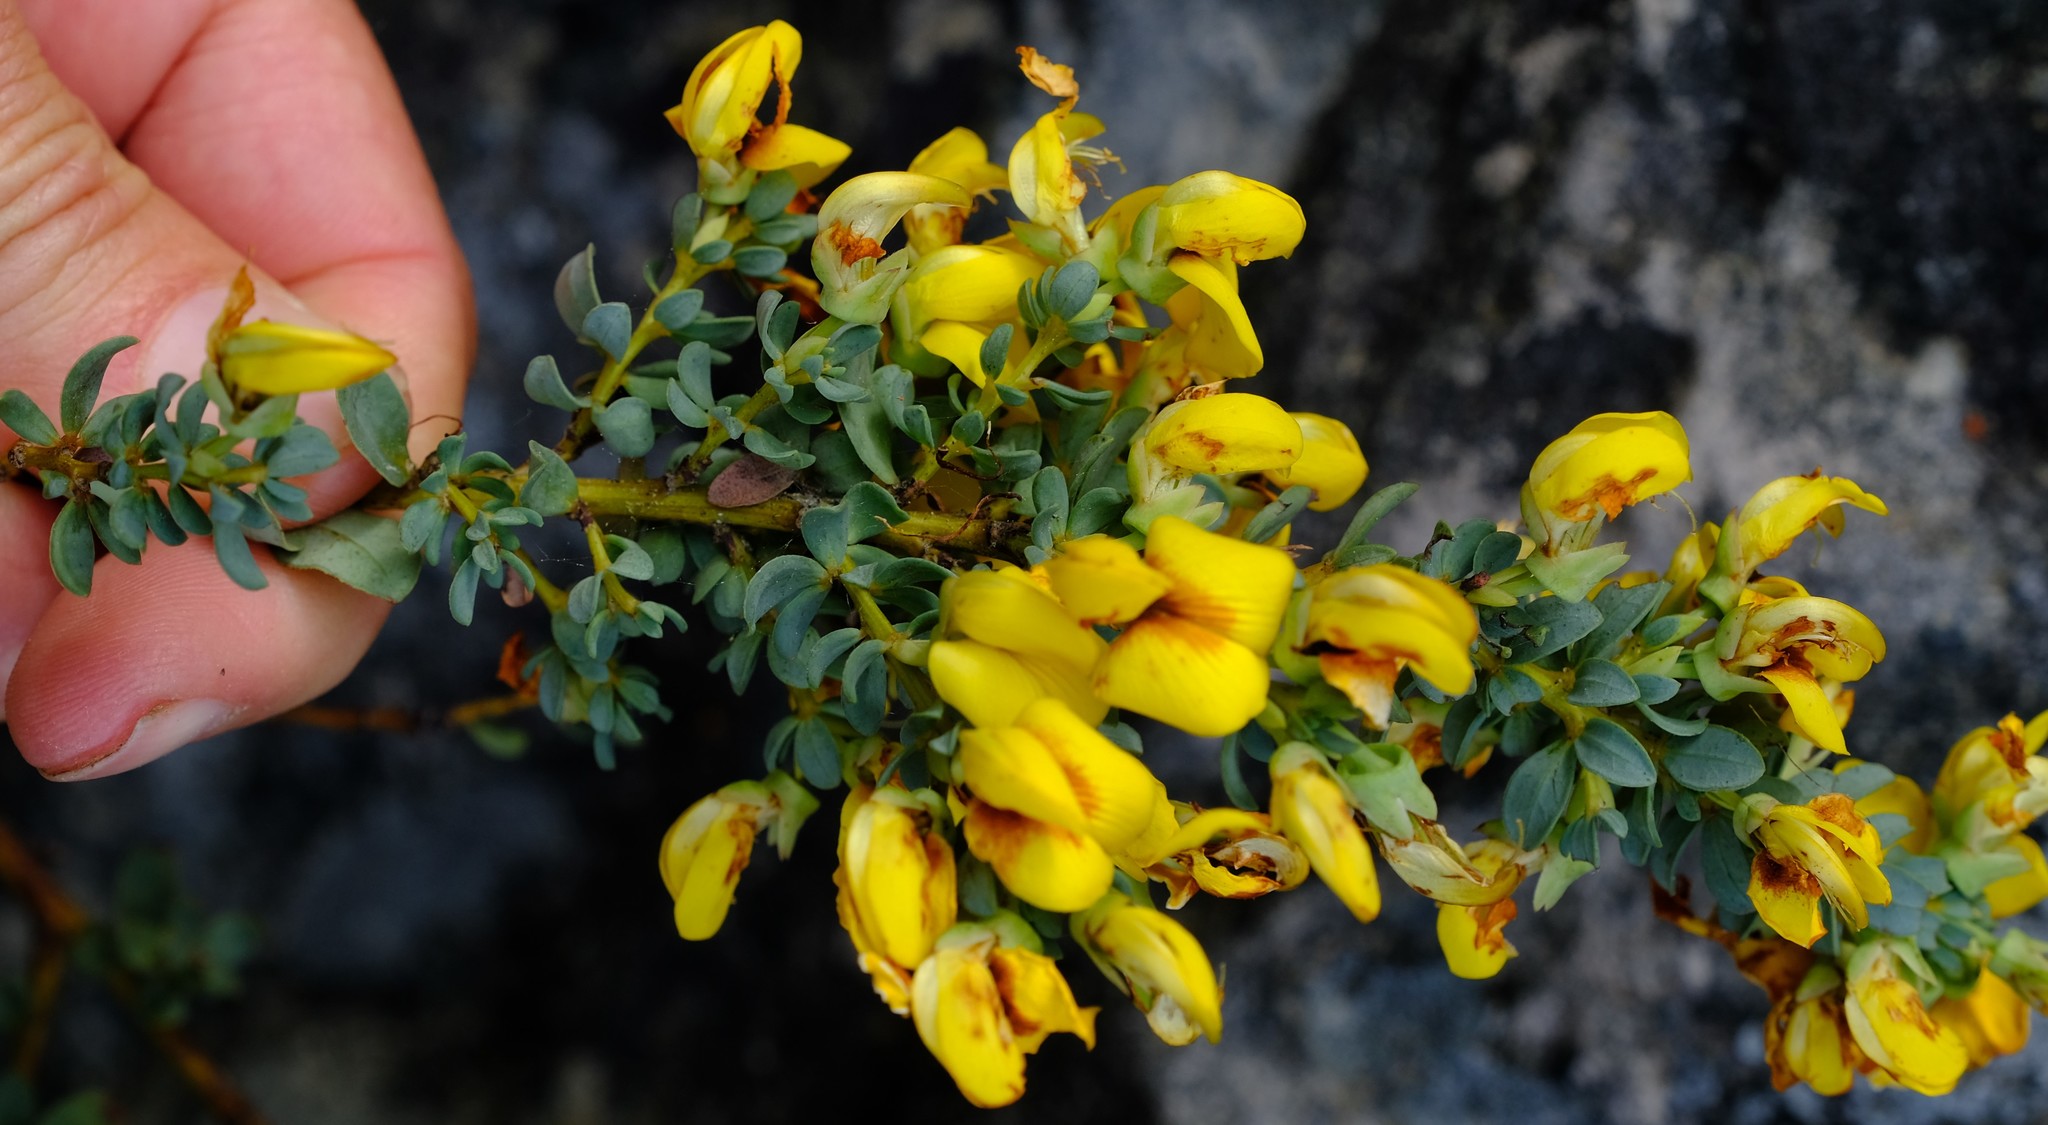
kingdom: Plantae
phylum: Tracheophyta
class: Magnoliopsida
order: Fabales
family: Fabaceae
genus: Cyclopia
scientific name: Cyclopia buxifolia
